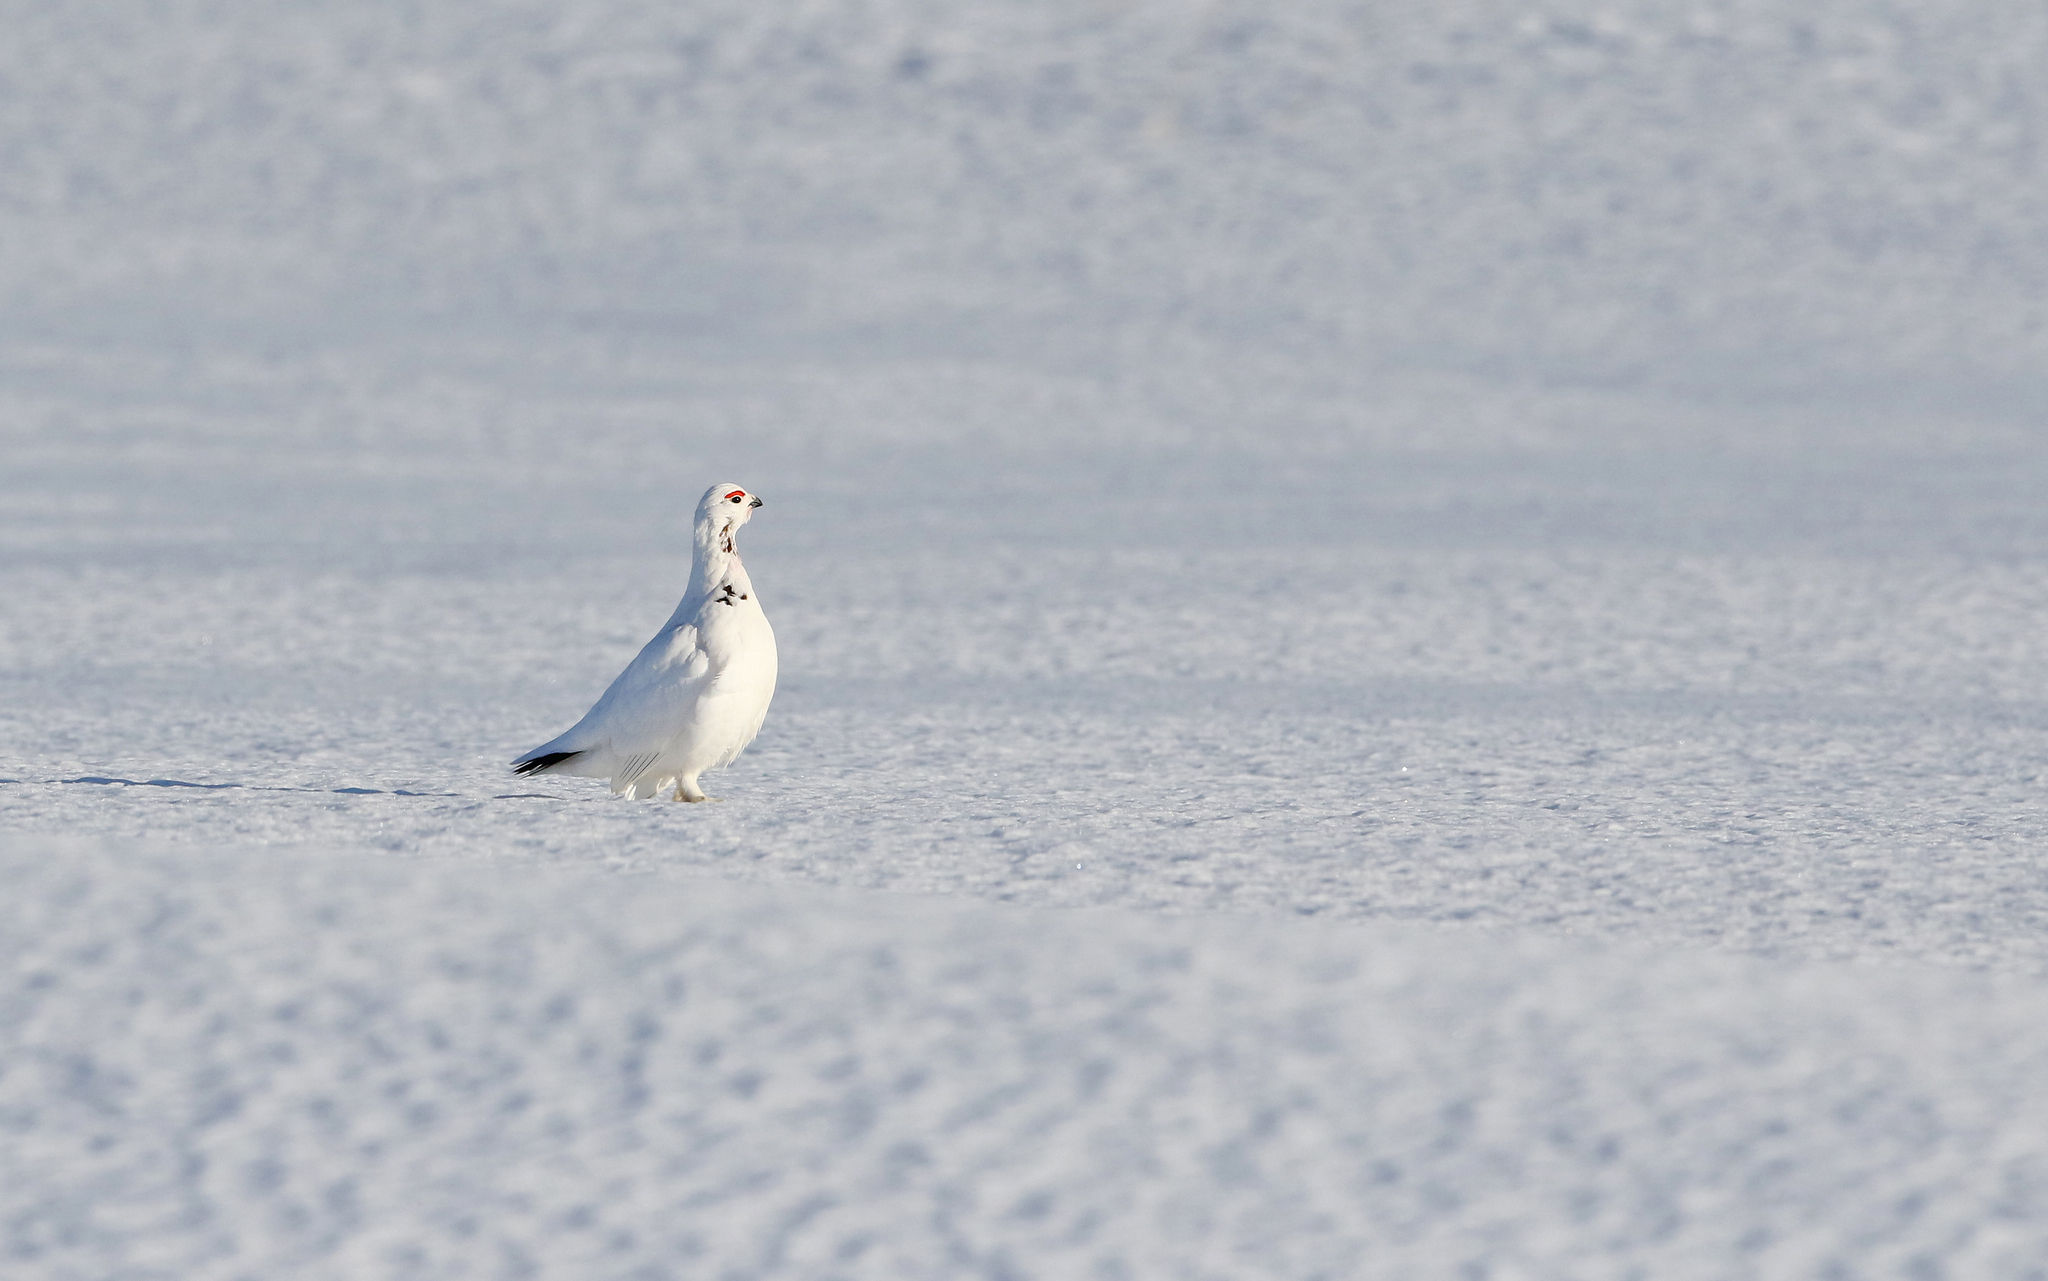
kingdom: Animalia
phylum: Chordata
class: Aves
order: Galliformes
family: Phasianidae
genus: Lagopus
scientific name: Lagopus lagopus
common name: Willow ptarmigan
